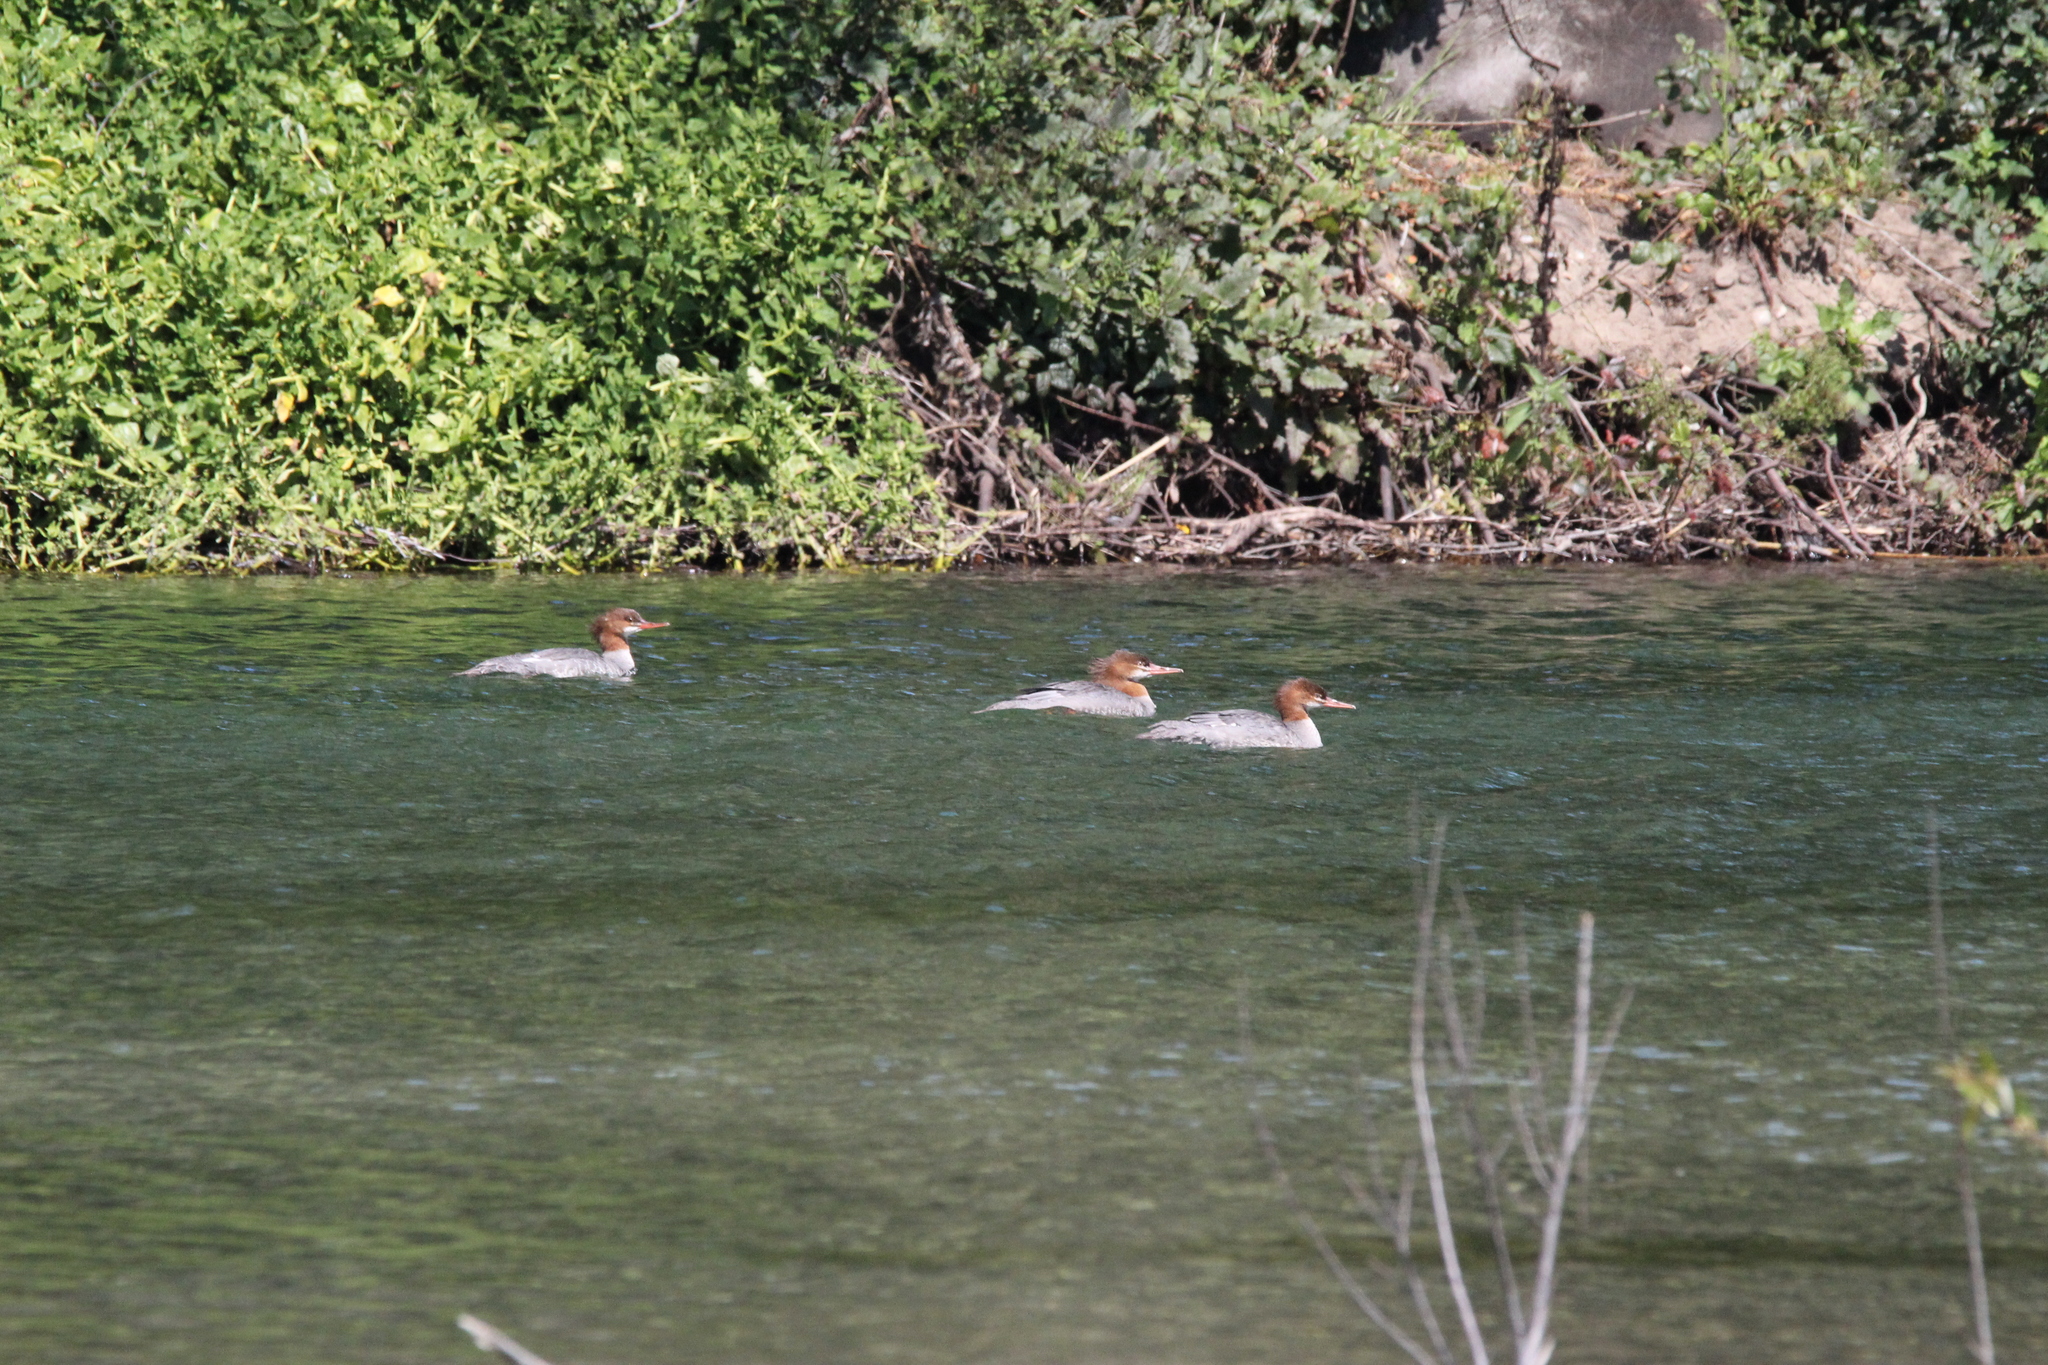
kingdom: Animalia
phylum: Chordata
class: Aves
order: Anseriformes
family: Anatidae
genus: Mergus
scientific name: Mergus merganser
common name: Common merganser
